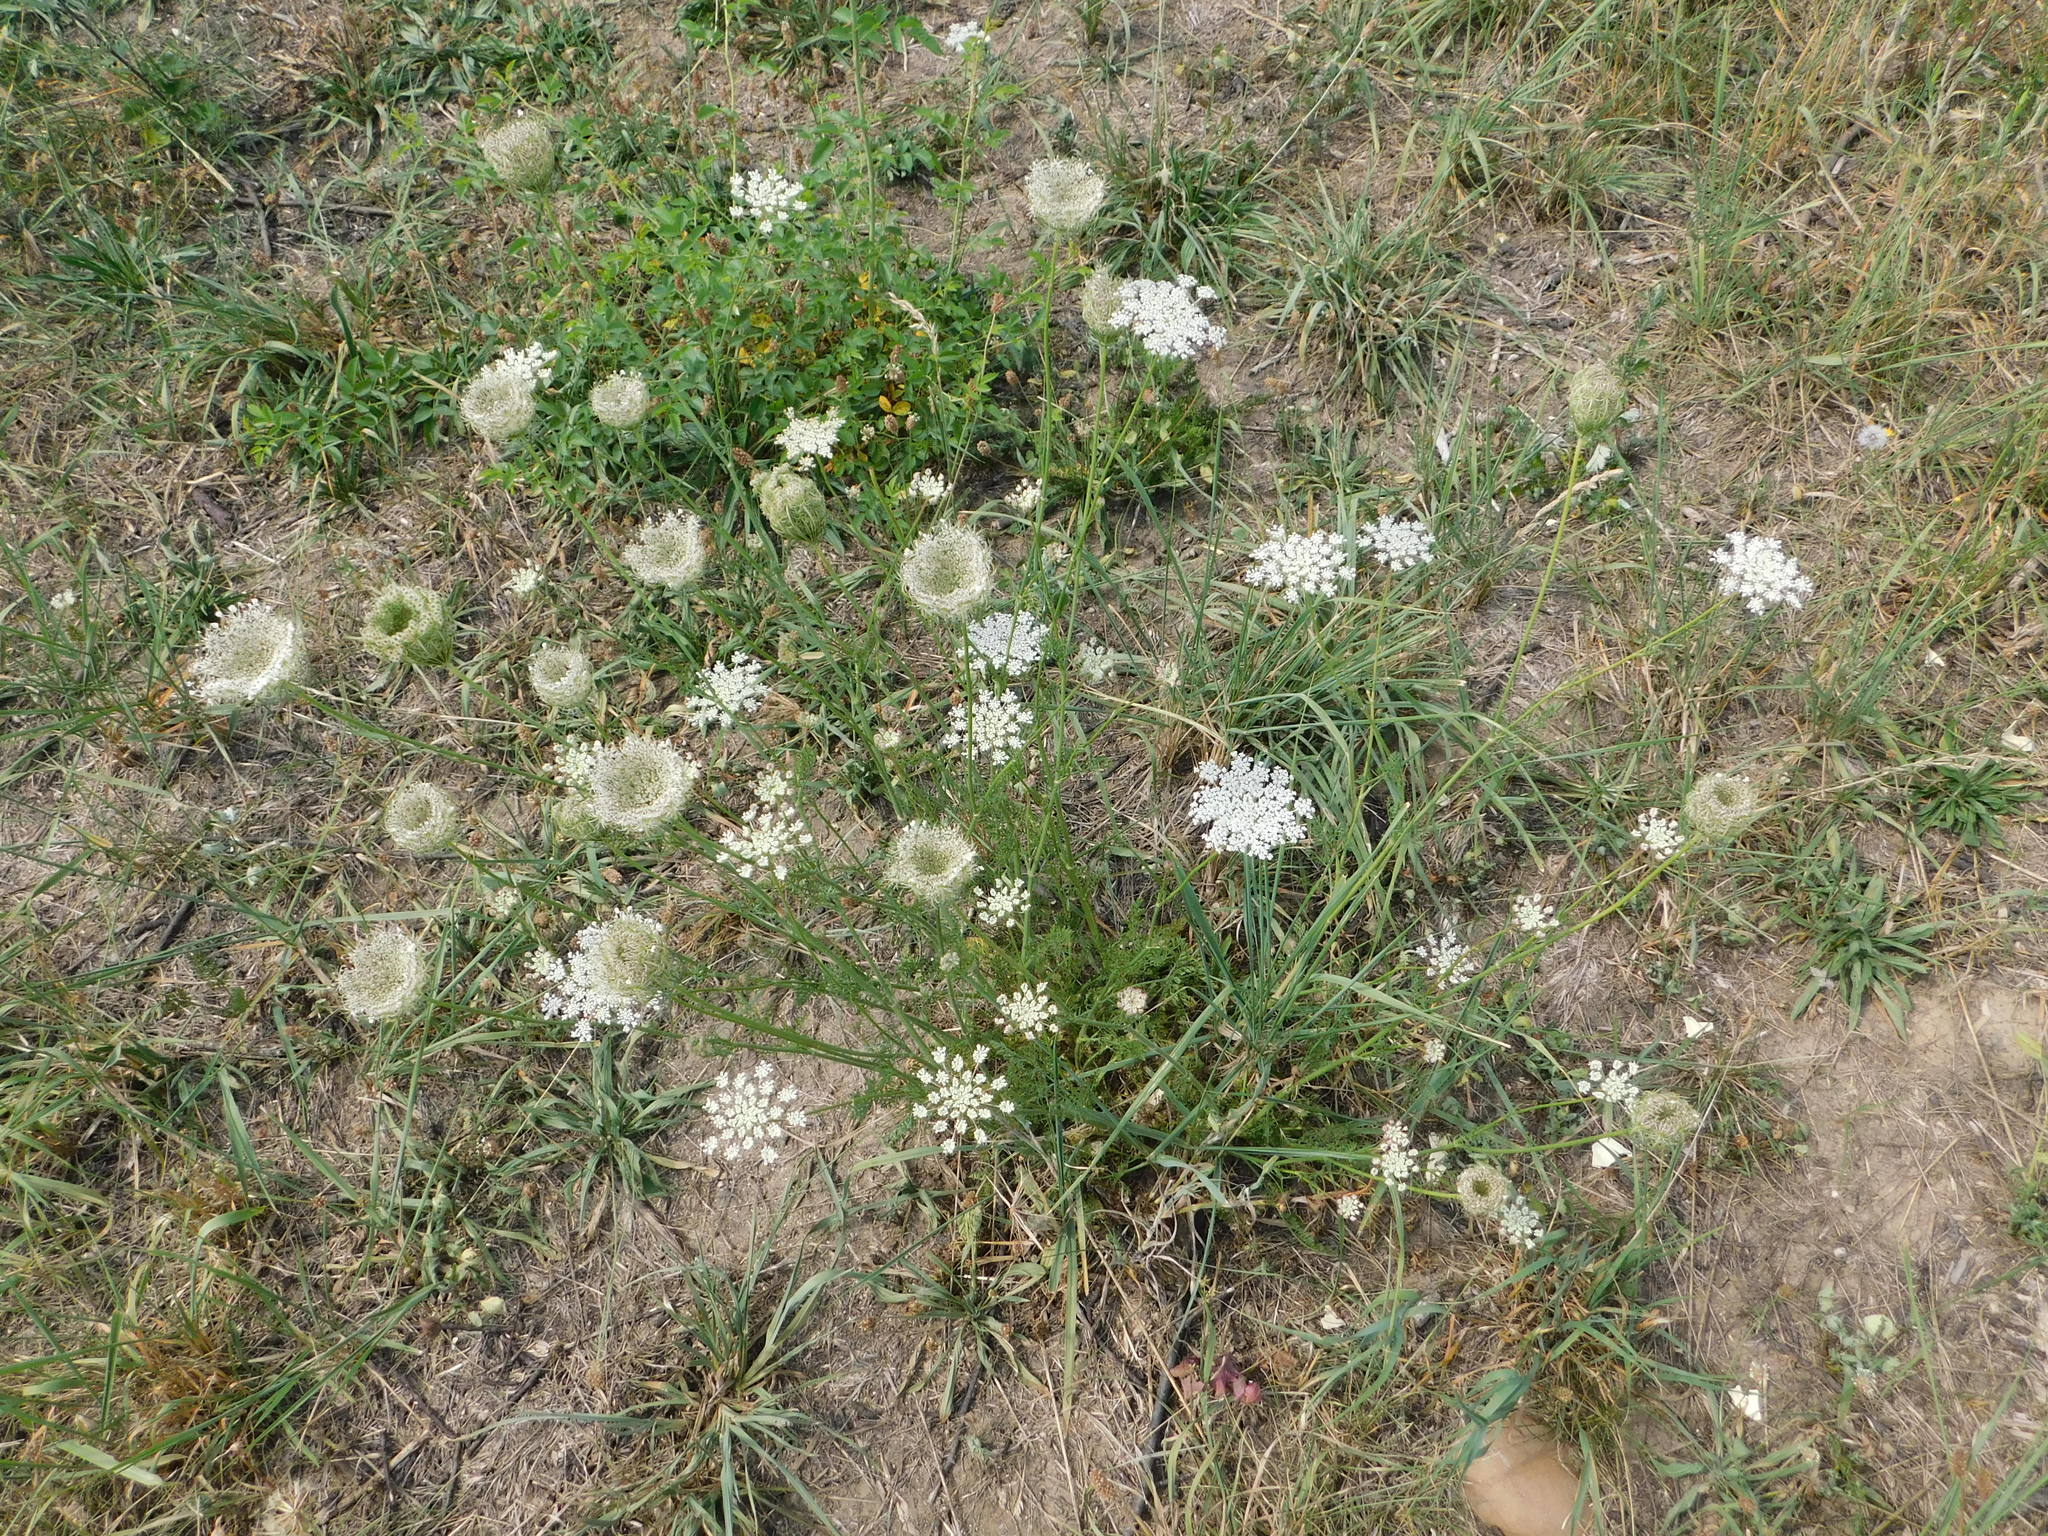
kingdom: Plantae
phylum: Tracheophyta
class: Magnoliopsida
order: Apiales
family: Apiaceae
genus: Daucus
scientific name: Daucus carota
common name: Wild carrot
